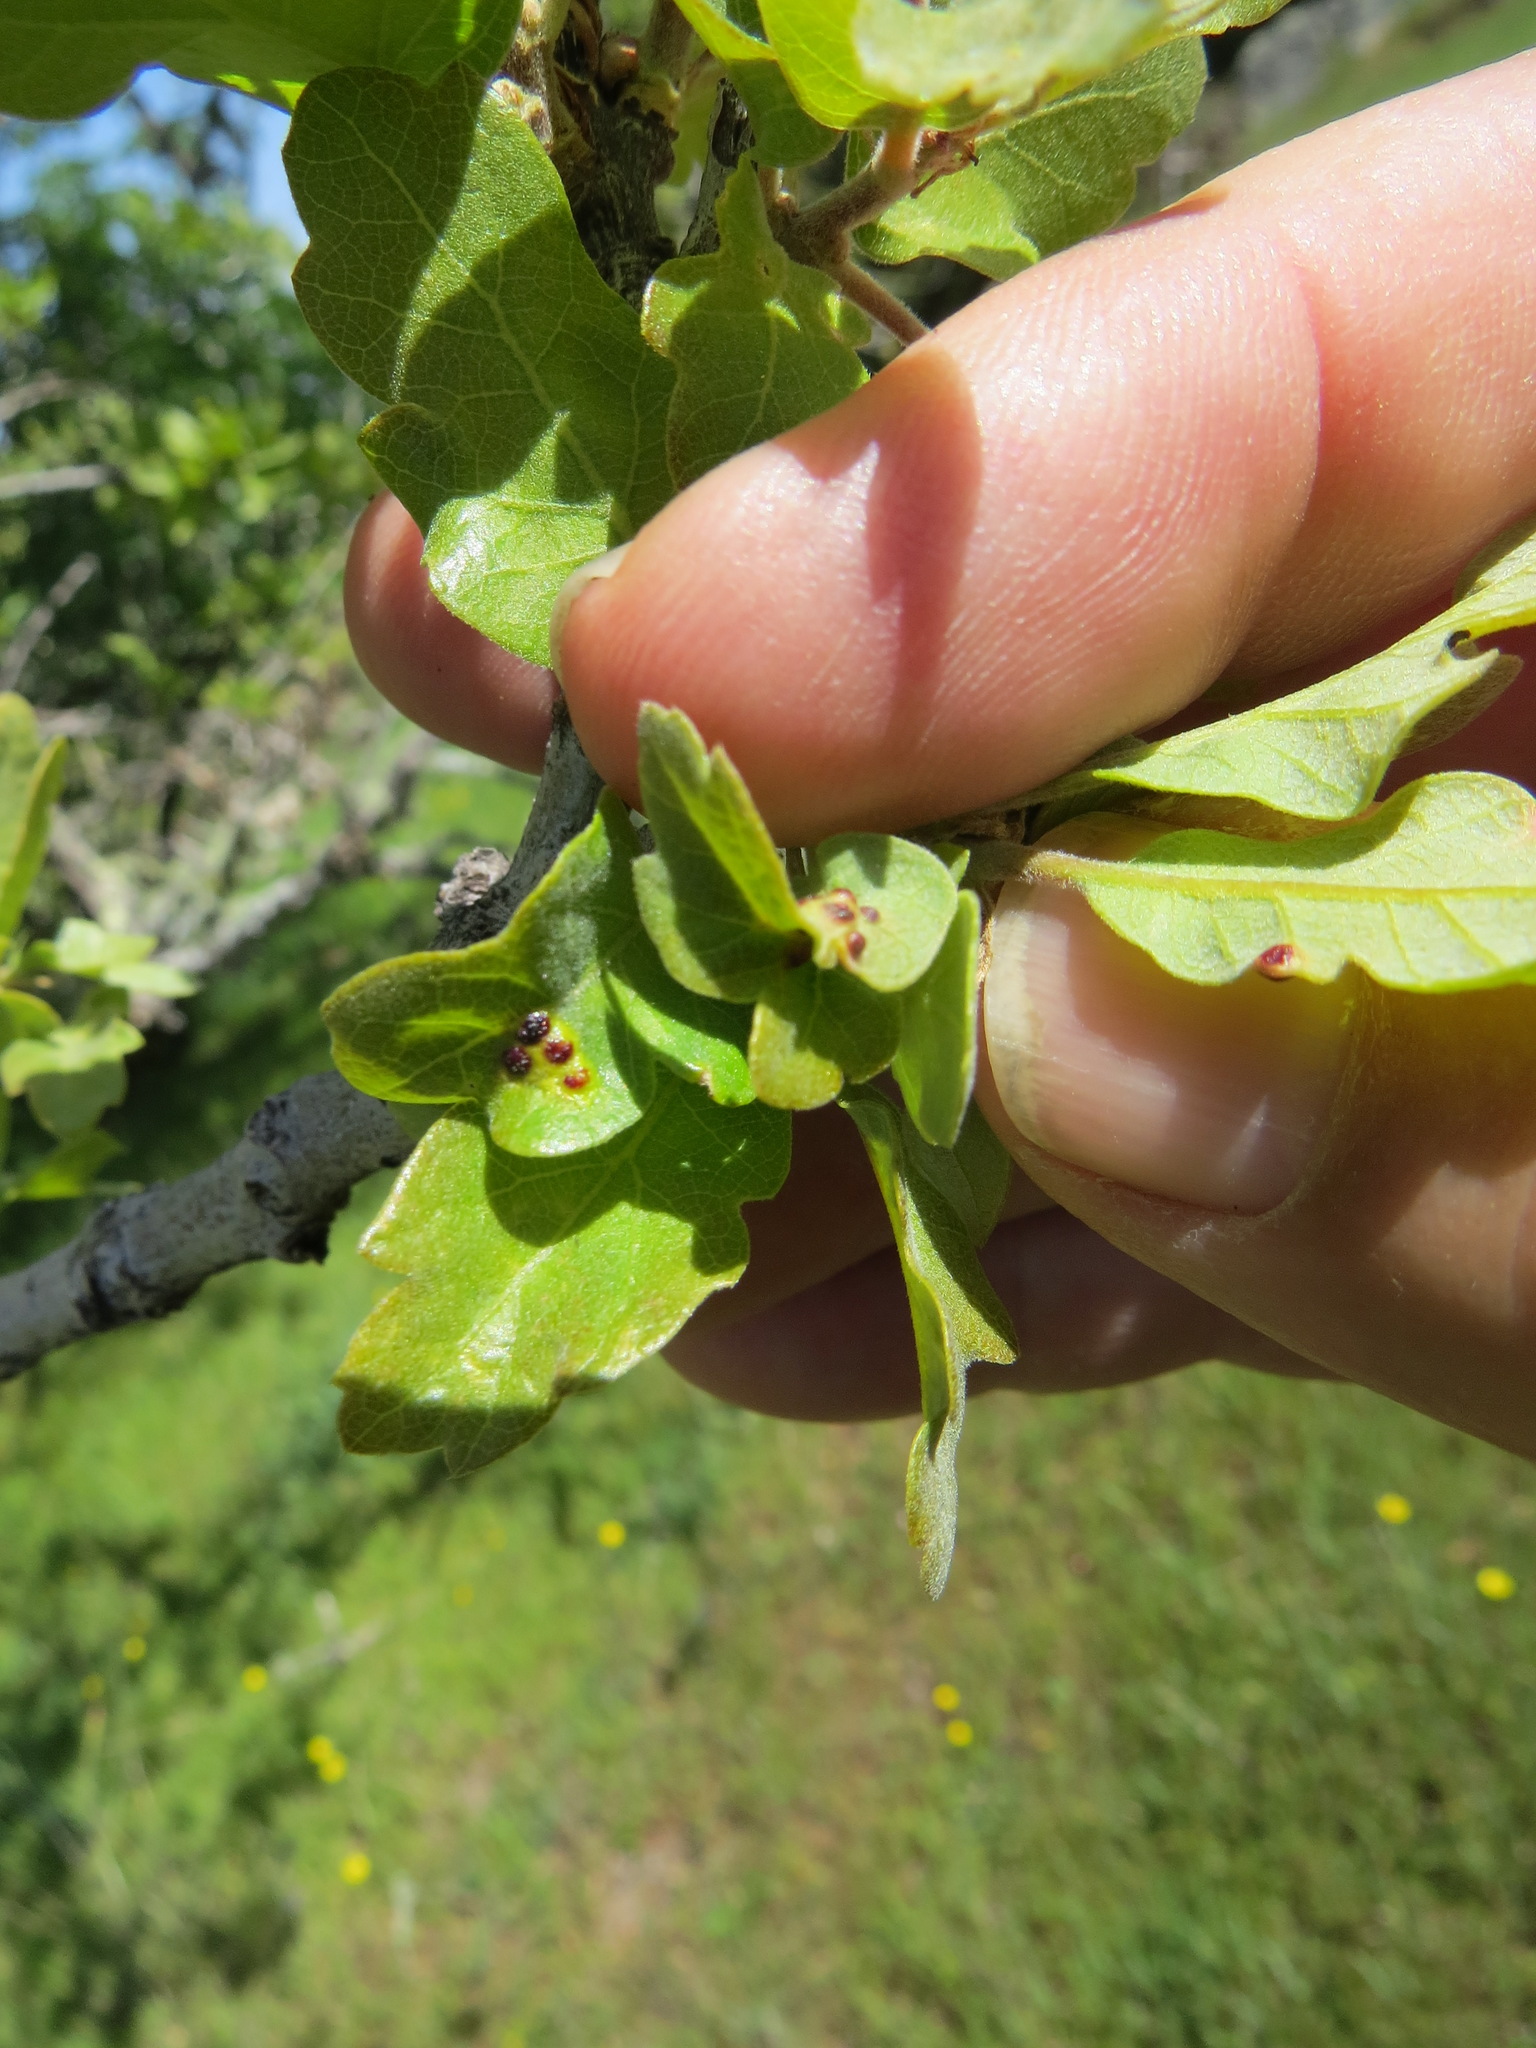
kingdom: Animalia
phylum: Arthropoda
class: Insecta
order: Hymenoptera
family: Cynipidae
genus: Neuroterus
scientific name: Neuroterus saltarius
